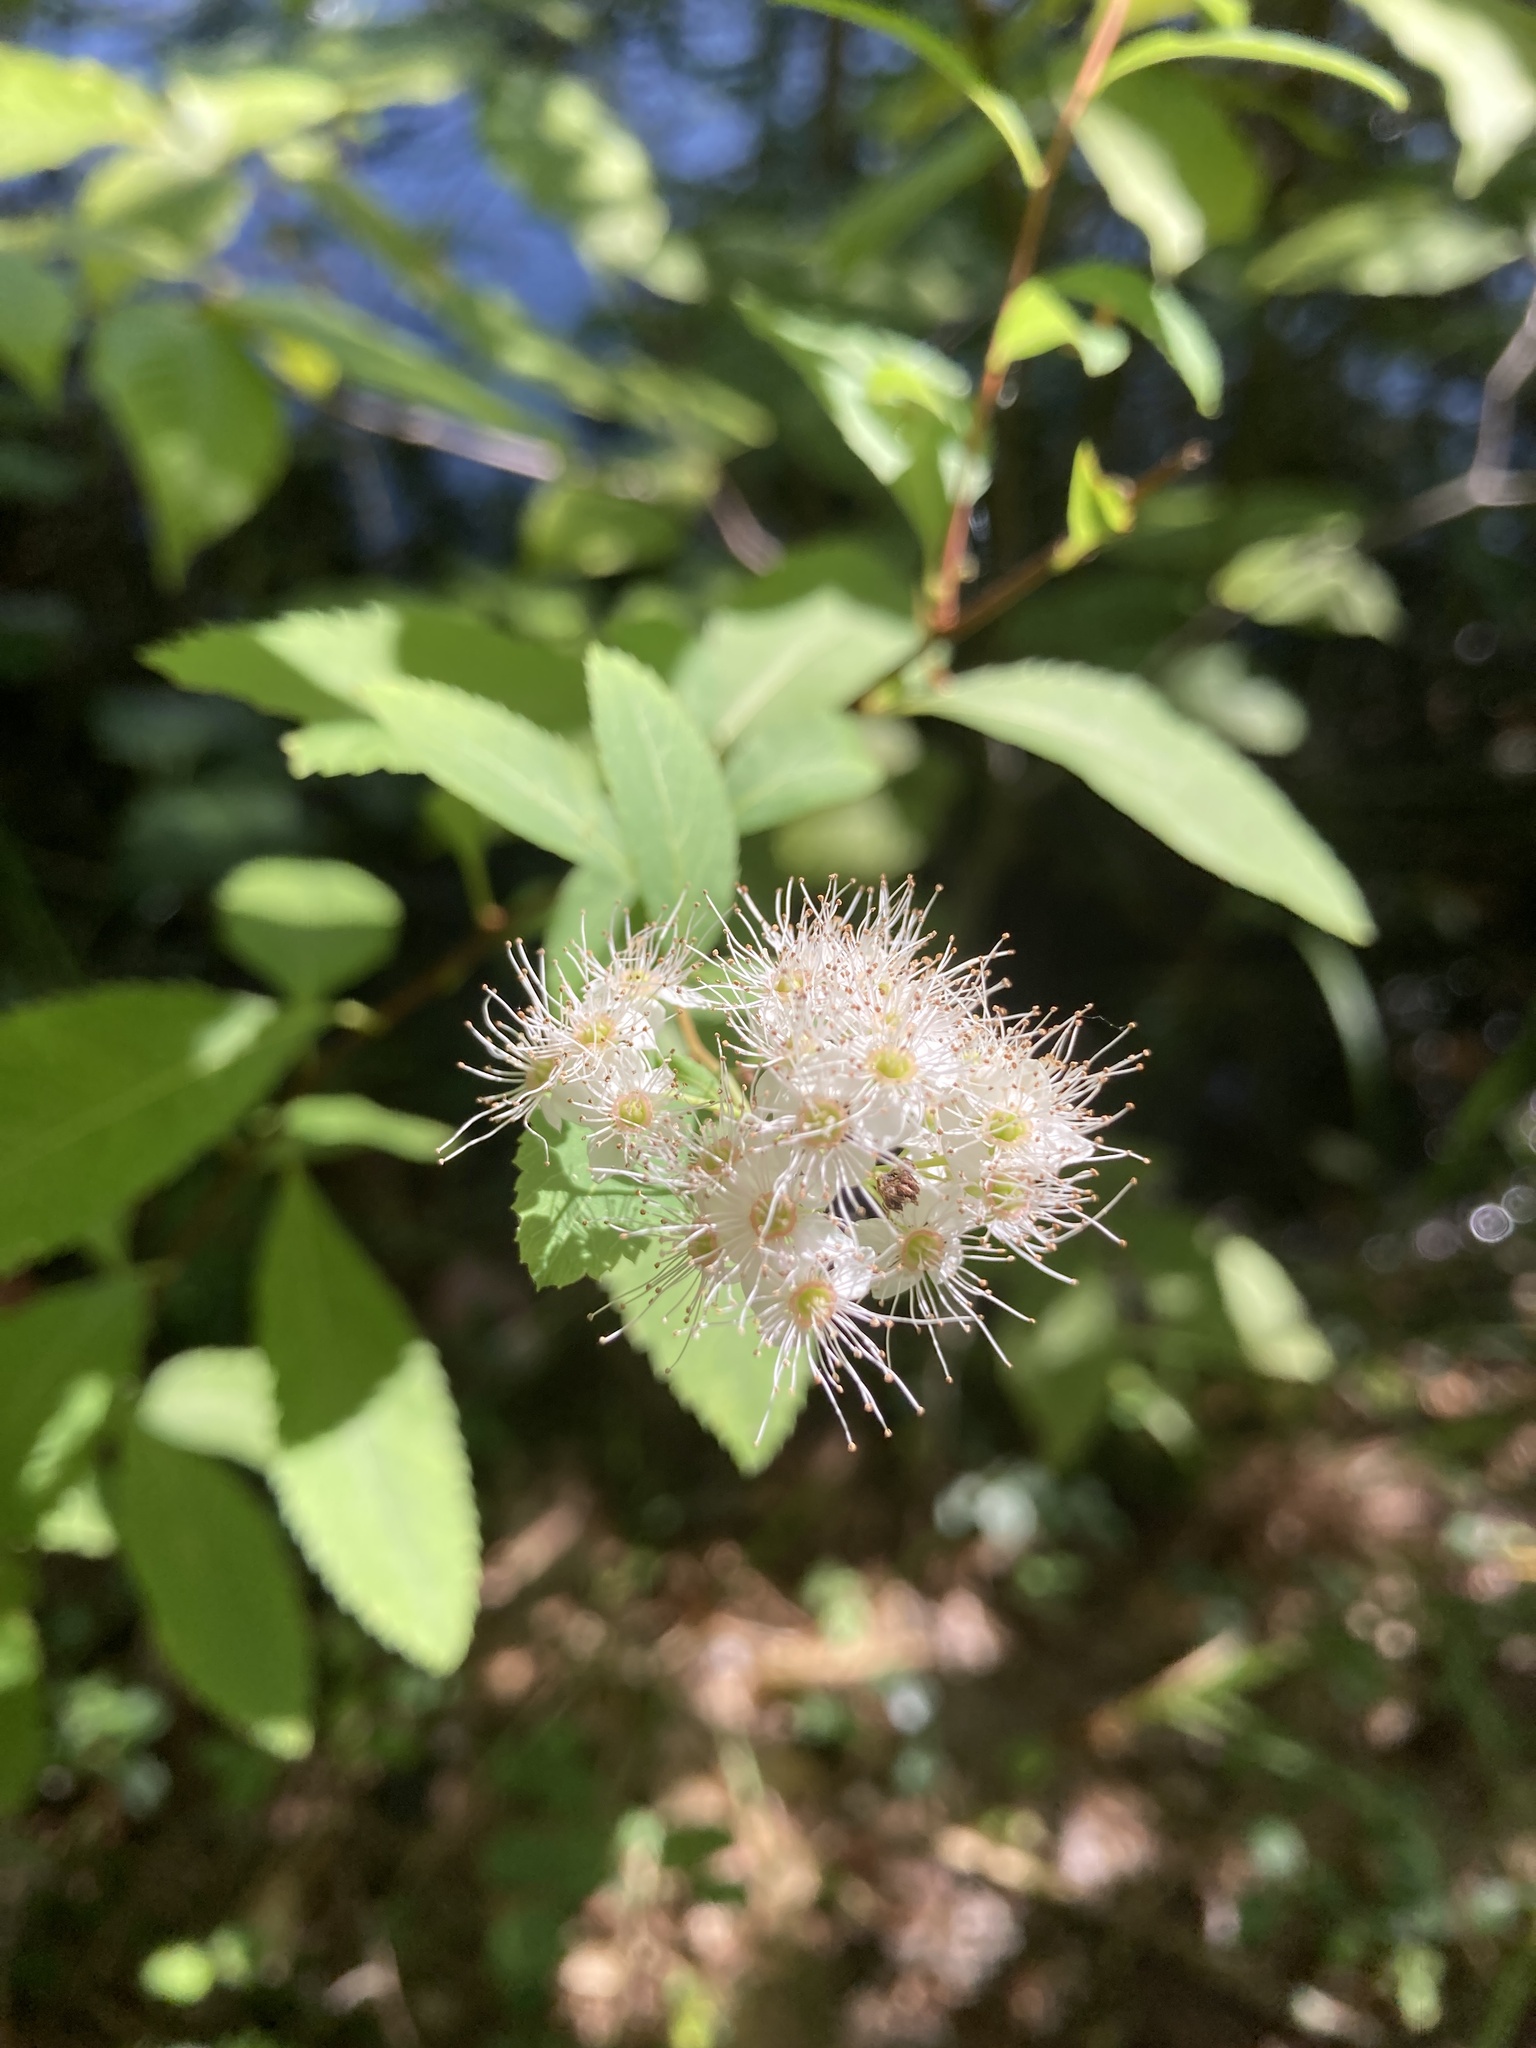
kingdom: Plantae
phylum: Tracheophyta
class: Magnoliopsida
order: Rosales
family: Rosaceae
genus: Spiraea
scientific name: Spiraea alba
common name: Pale bridewort
